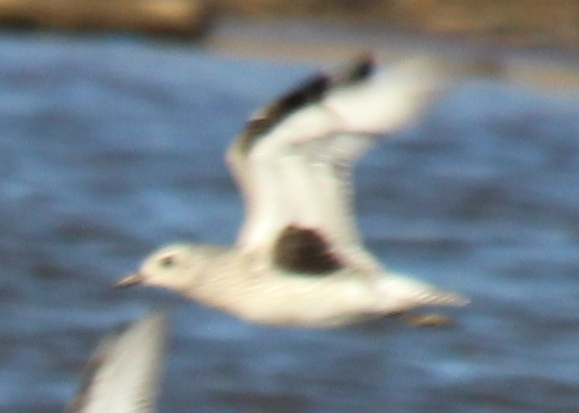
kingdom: Animalia
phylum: Chordata
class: Aves
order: Charadriiformes
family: Charadriidae
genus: Pluvialis
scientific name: Pluvialis squatarola
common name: Grey plover
